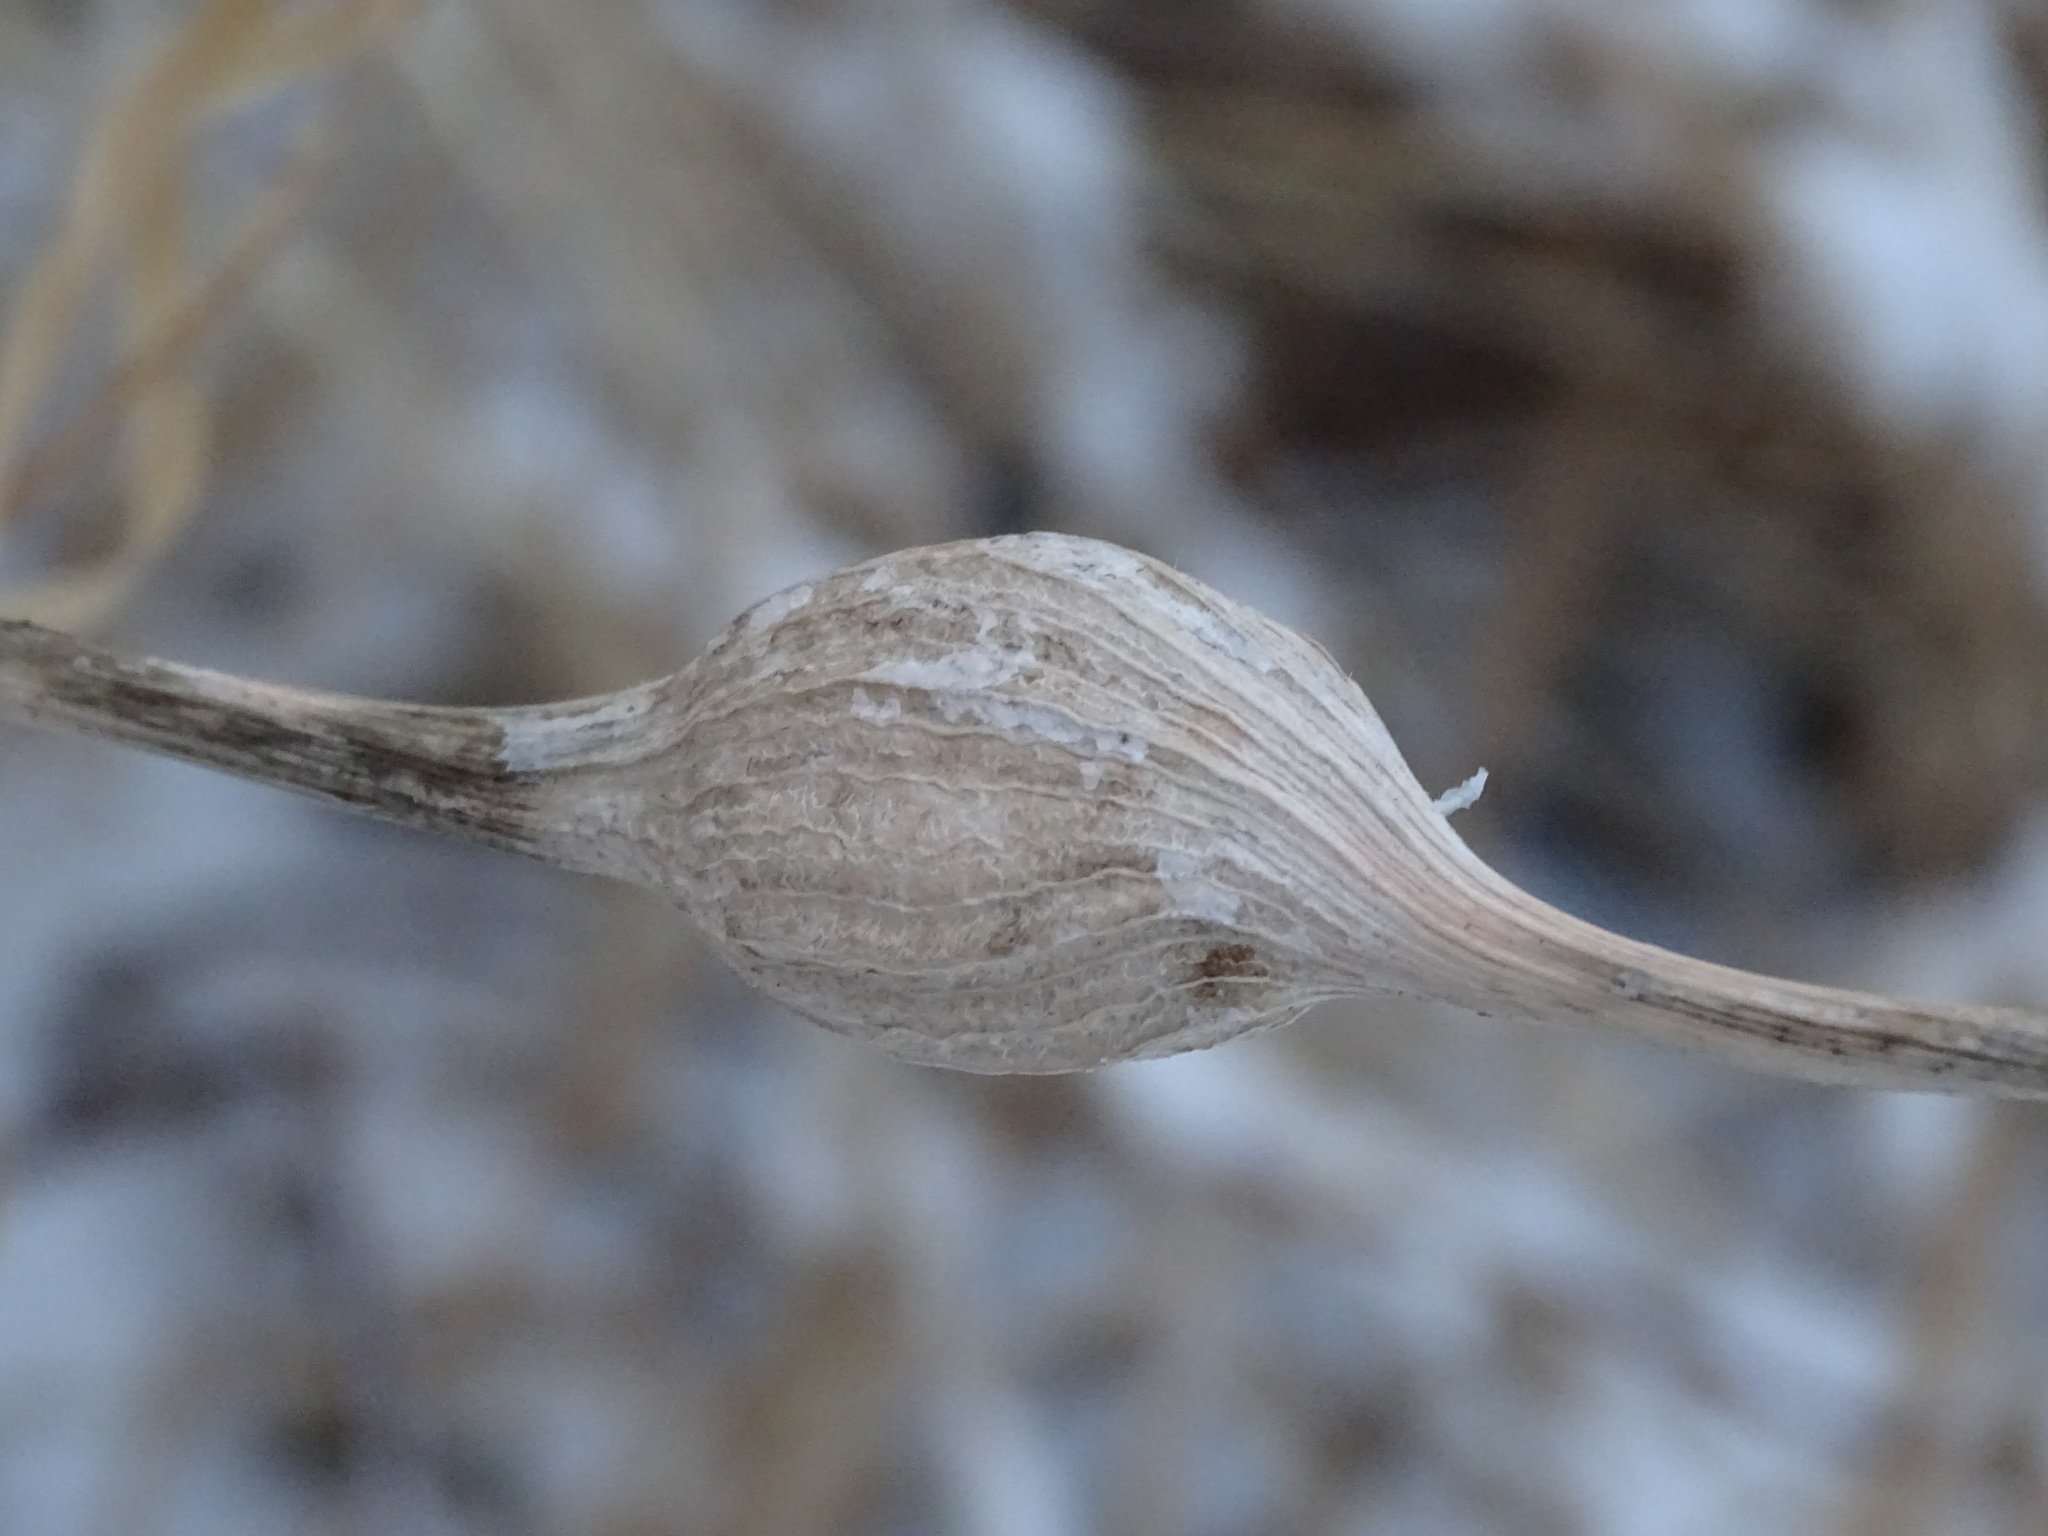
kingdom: Animalia
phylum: Arthropoda
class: Insecta
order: Diptera
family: Tephritidae
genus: Eurosta
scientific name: Eurosta solidaginis
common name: Goldenrod gall fly
